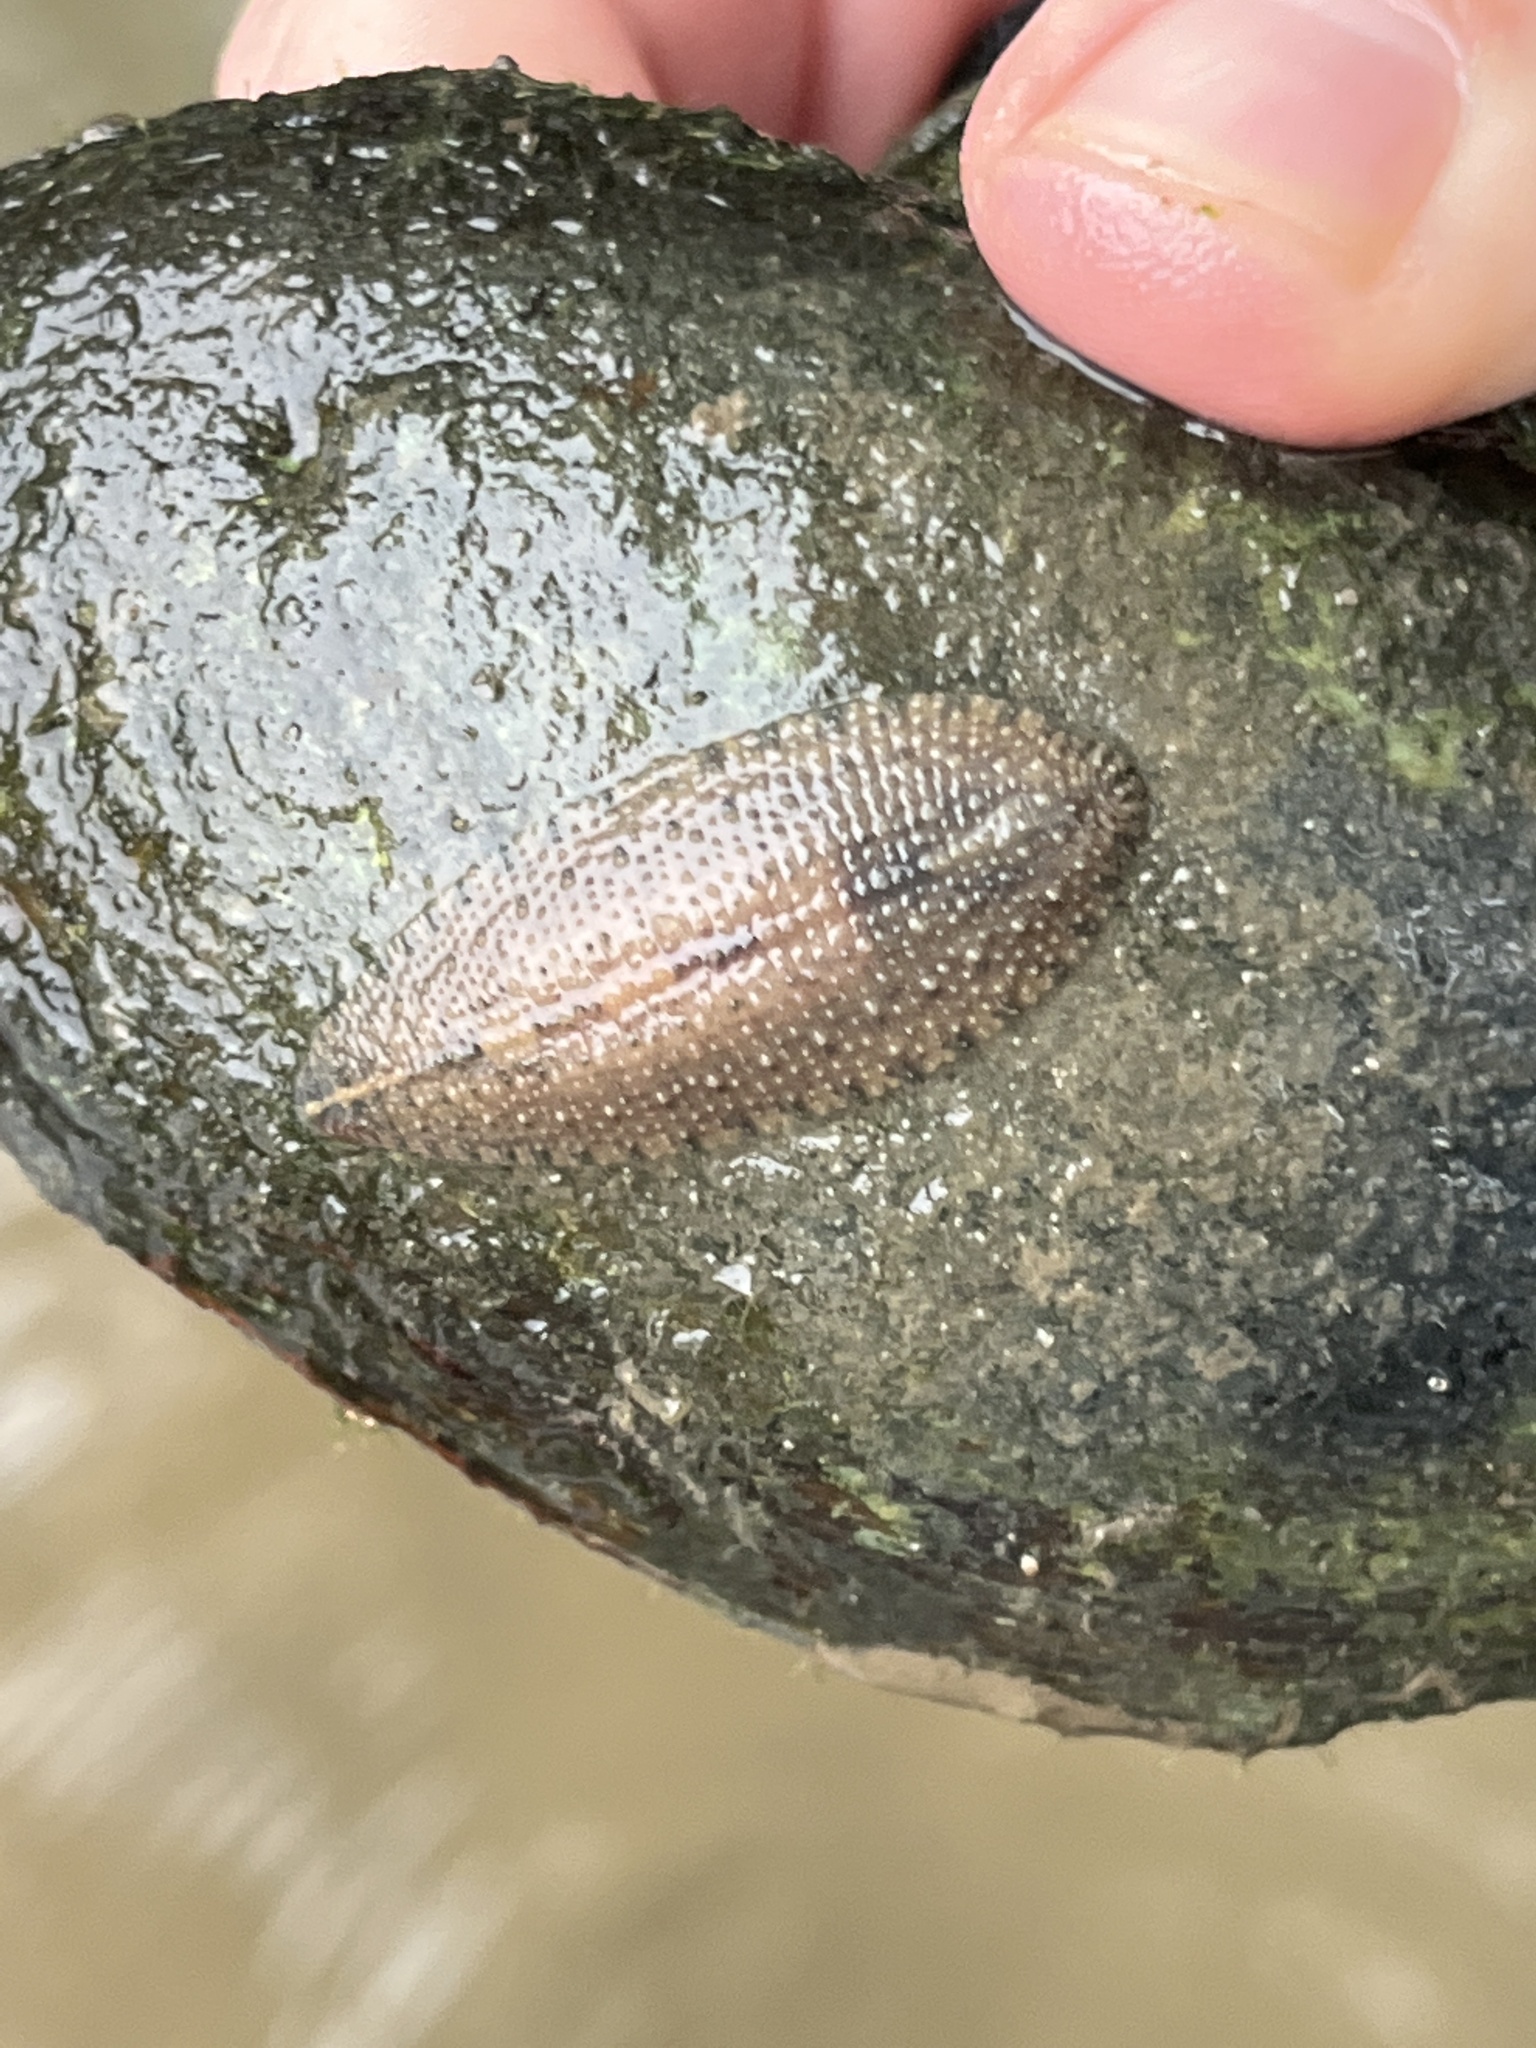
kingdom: Animalia
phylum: Annelida
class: Clitellata
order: Rhynchobdellida
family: Glossiphoniidae
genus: Placobdella
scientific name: Placobdella rugosa
